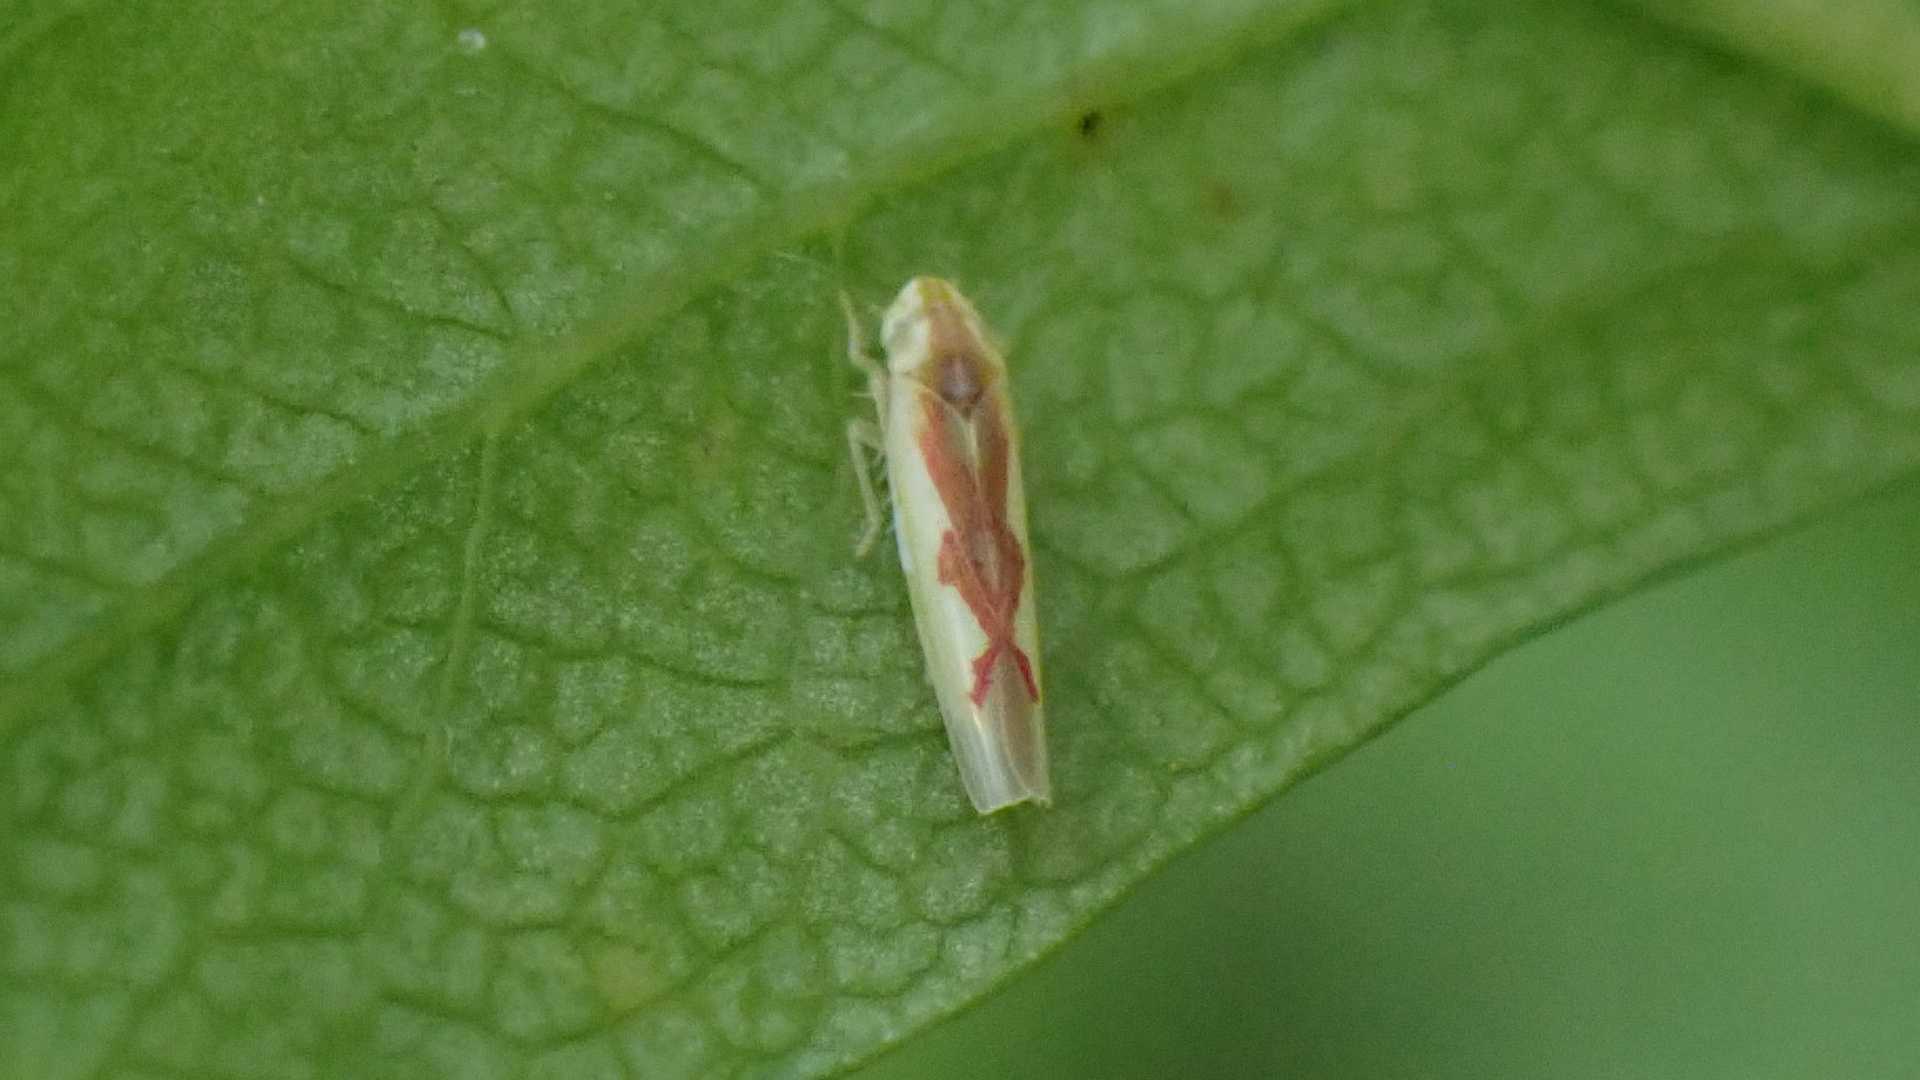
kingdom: Animalia
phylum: Arthropoda
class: Insecta
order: Hemiptera
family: Cicadellidae
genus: Zygina
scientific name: Zygina angusta
